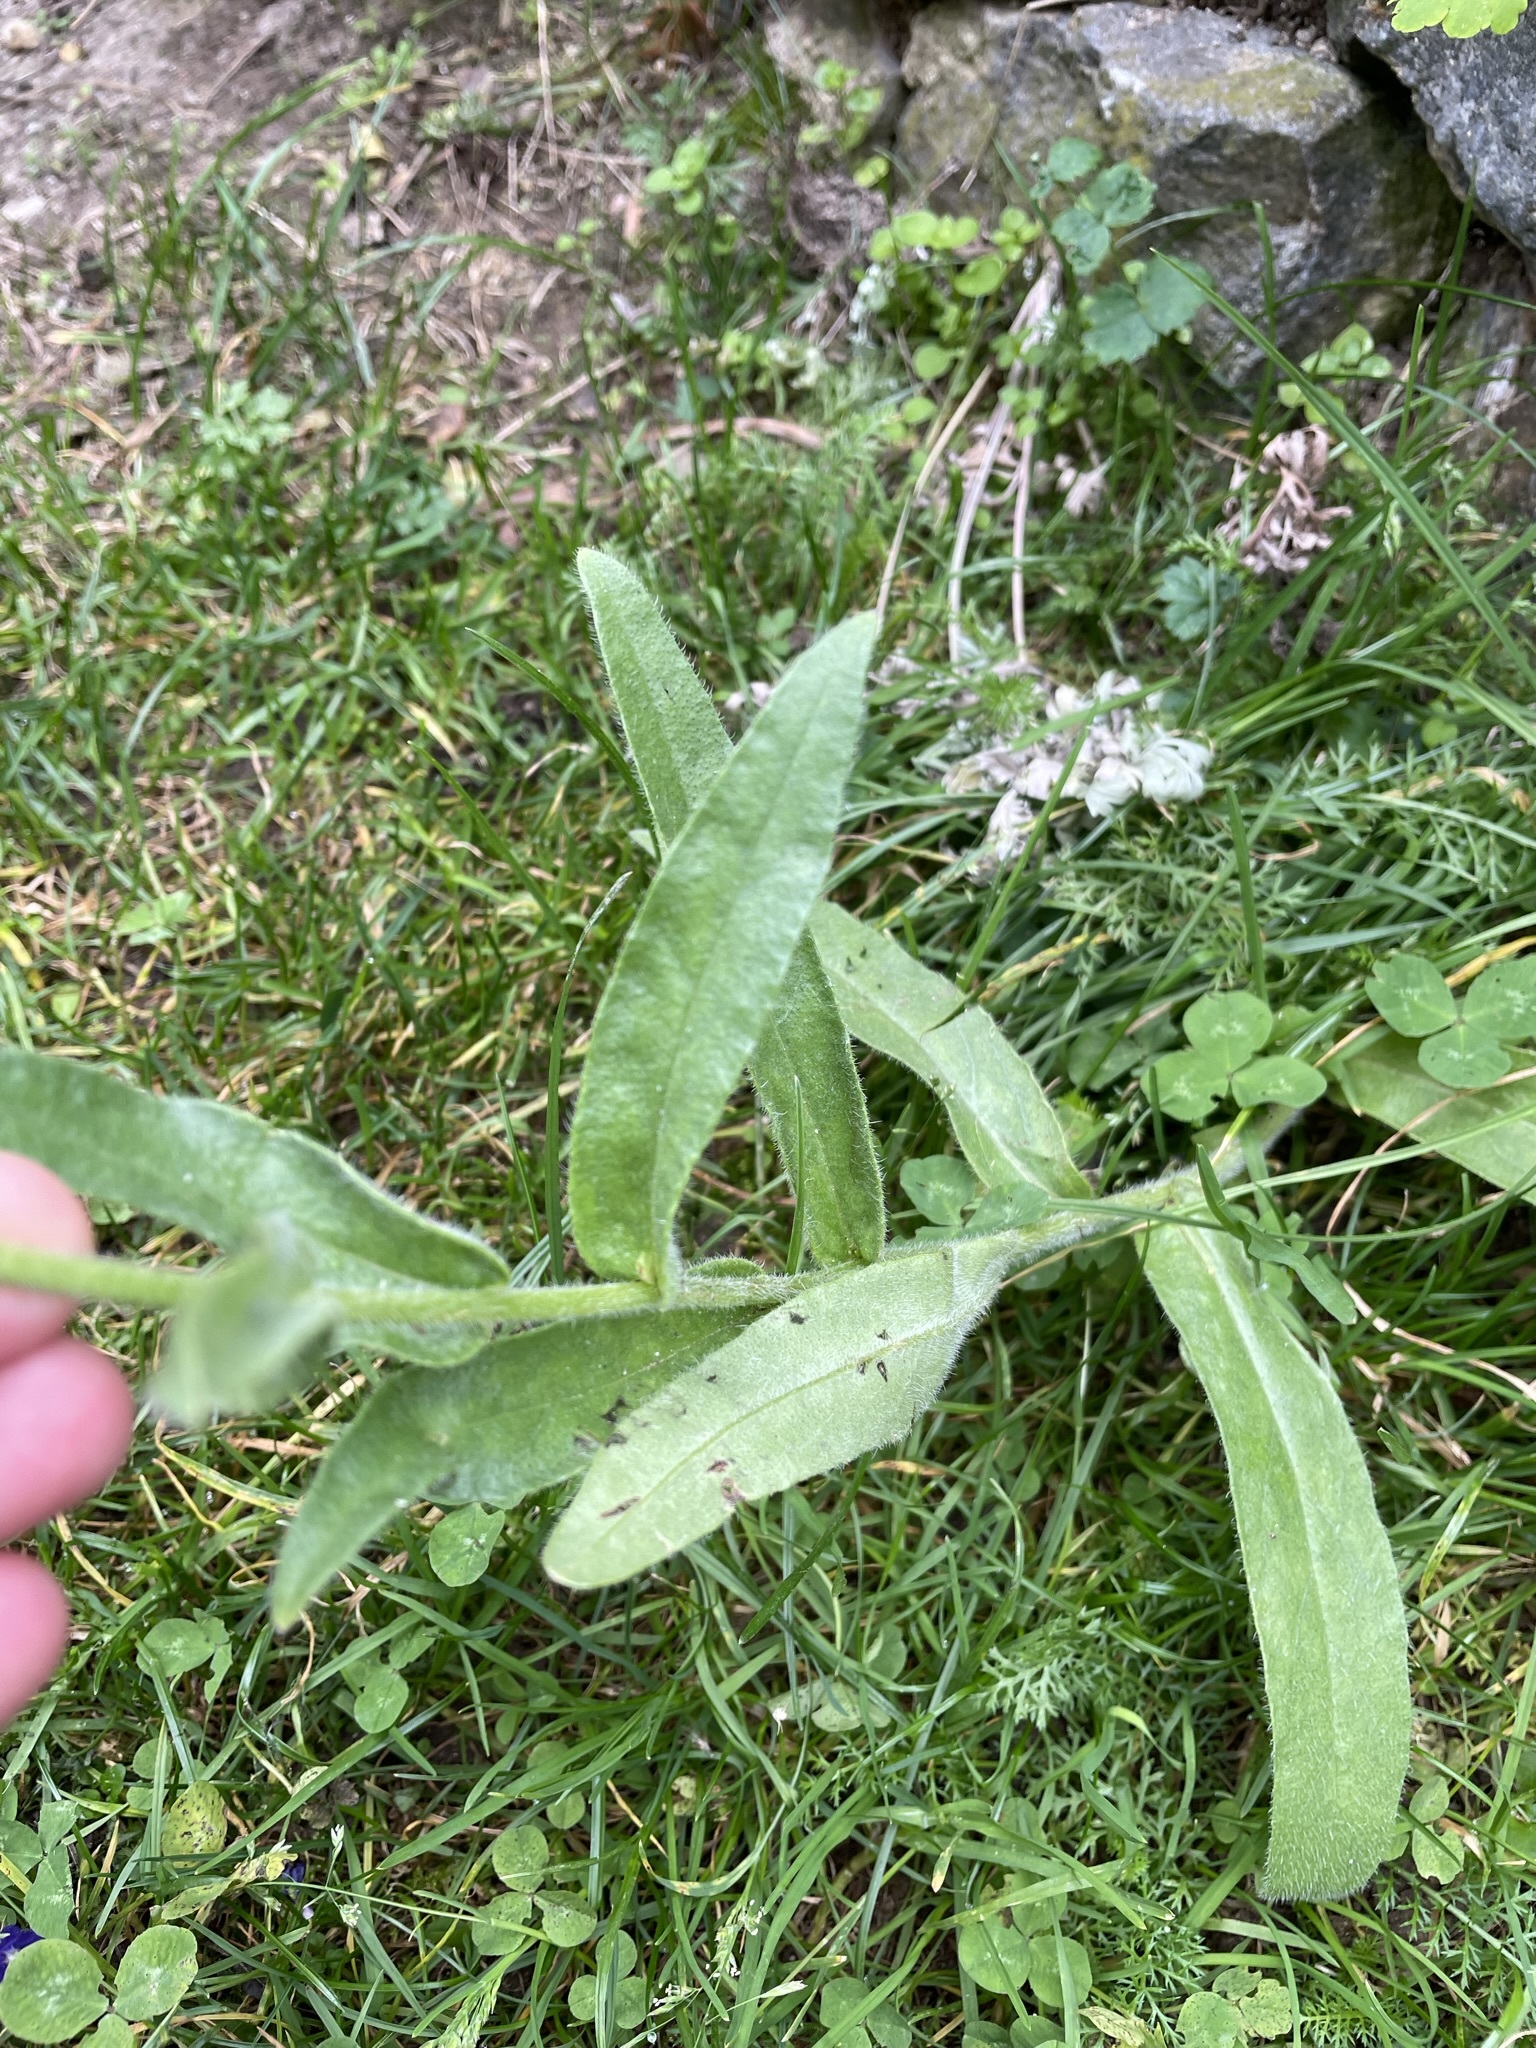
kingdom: Plantae
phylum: Tracheophyta
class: Magnoliopsida
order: Boraginales
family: Boraginaceae
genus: Anchusa
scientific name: Anchusa officinalis
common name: Alkanet
